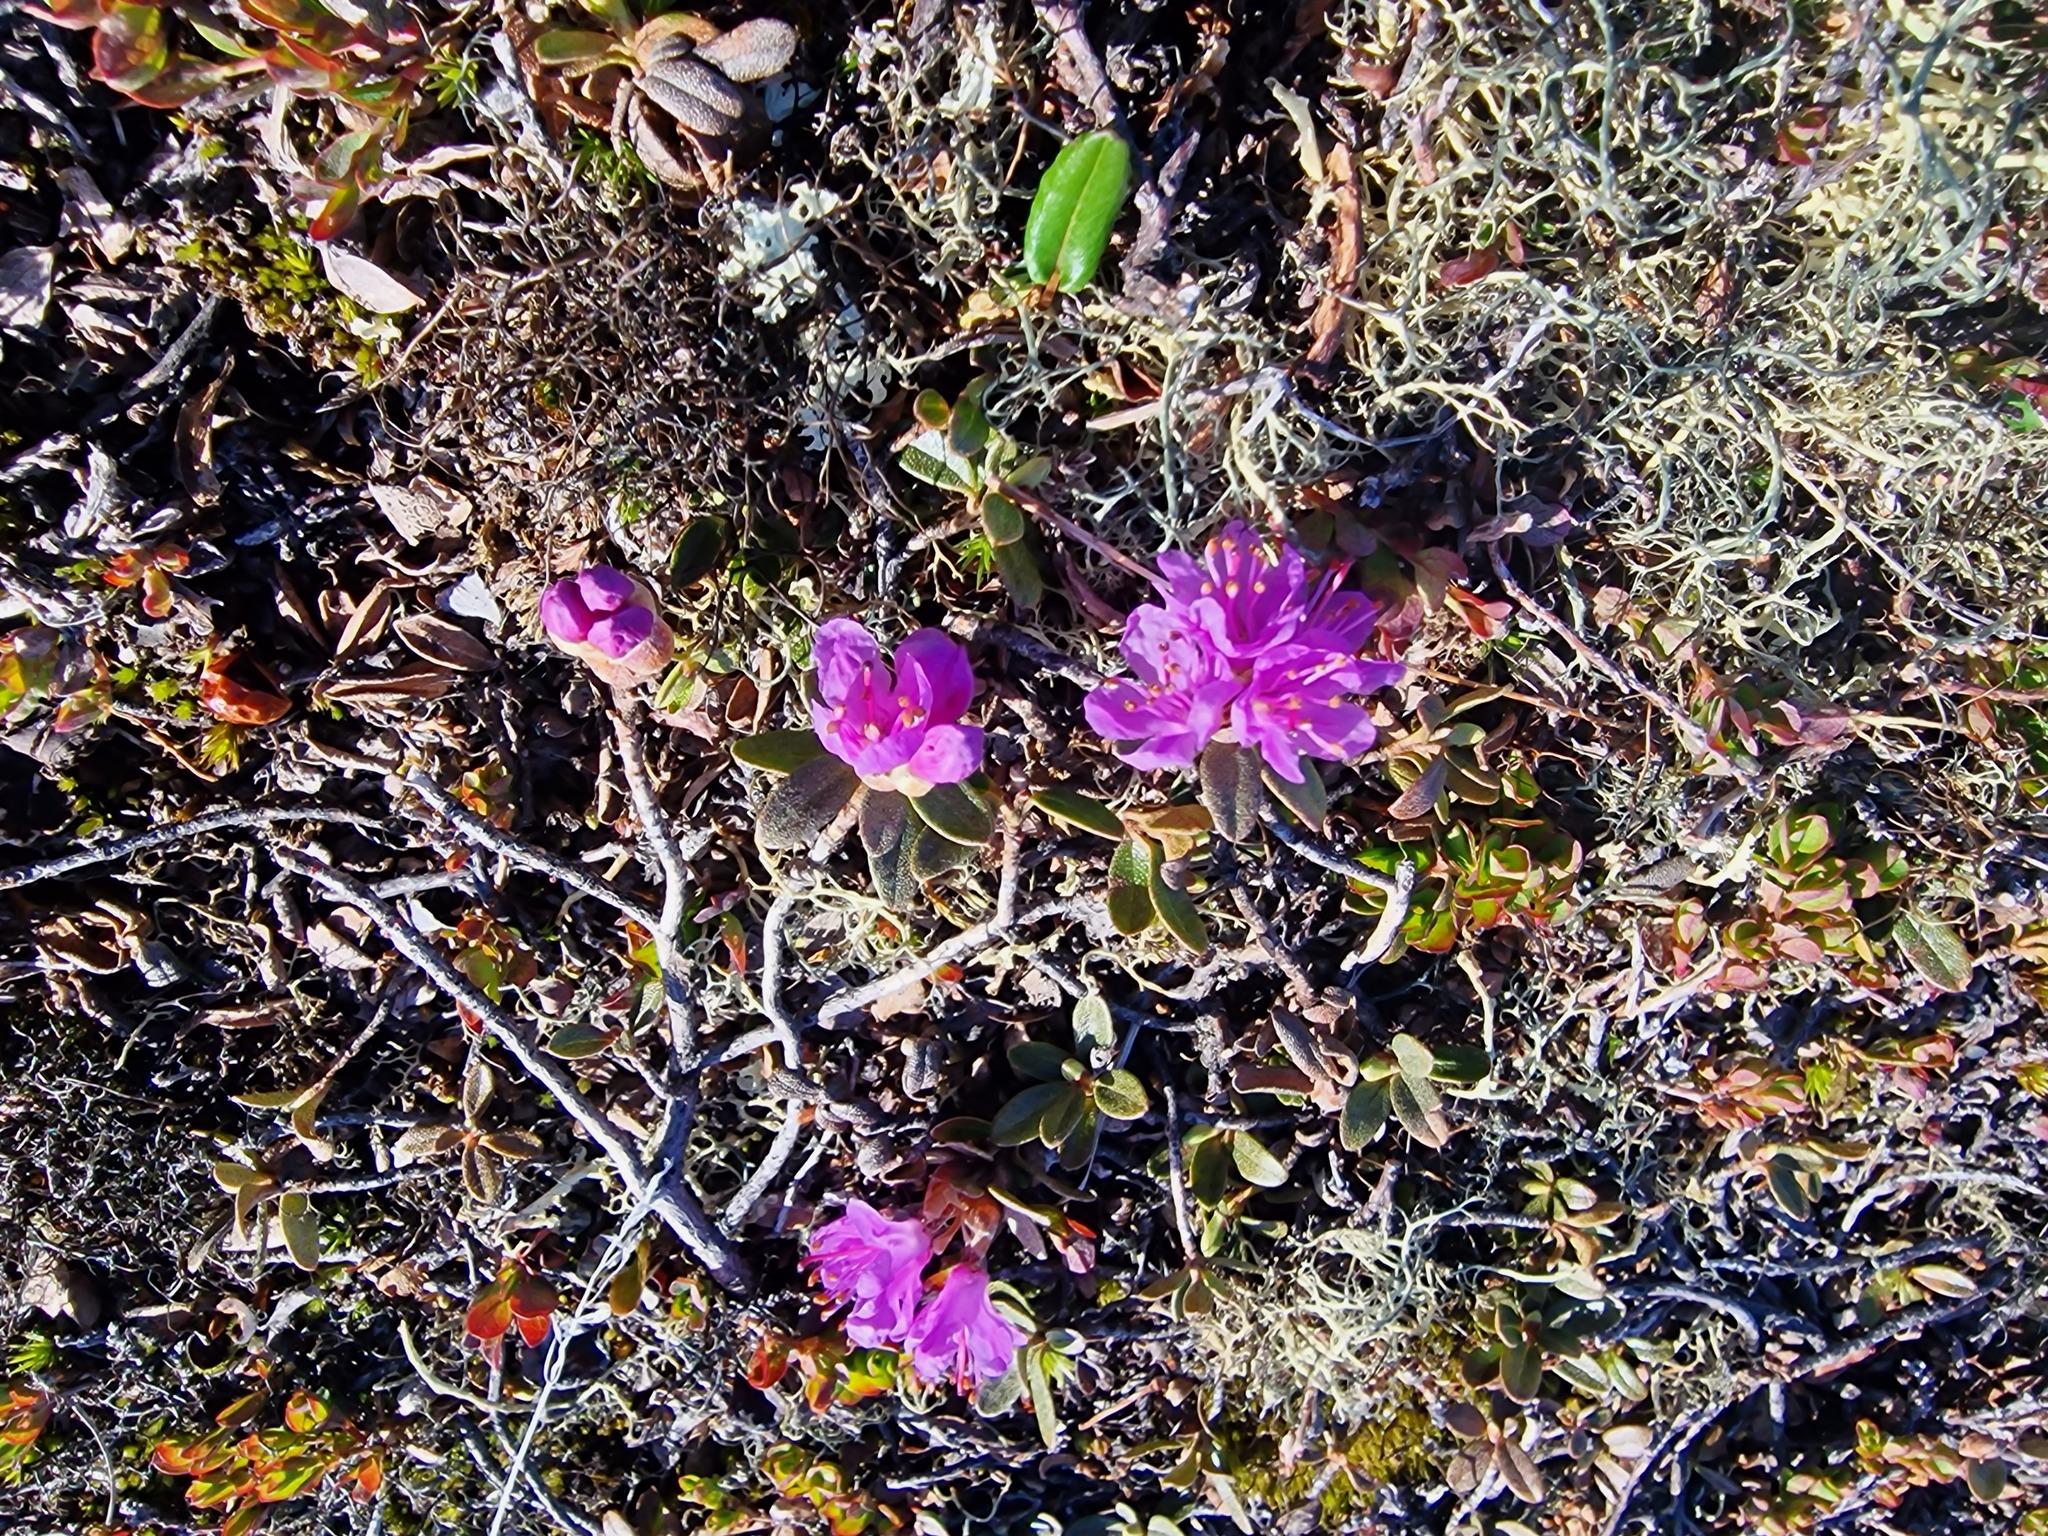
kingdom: Plantae
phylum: Tracheophyta
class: Magnoliopsida
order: Ericales
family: Ericaceae
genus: Rhododendron
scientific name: Rhododendron lapponicum
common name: Lapland rhododendron
